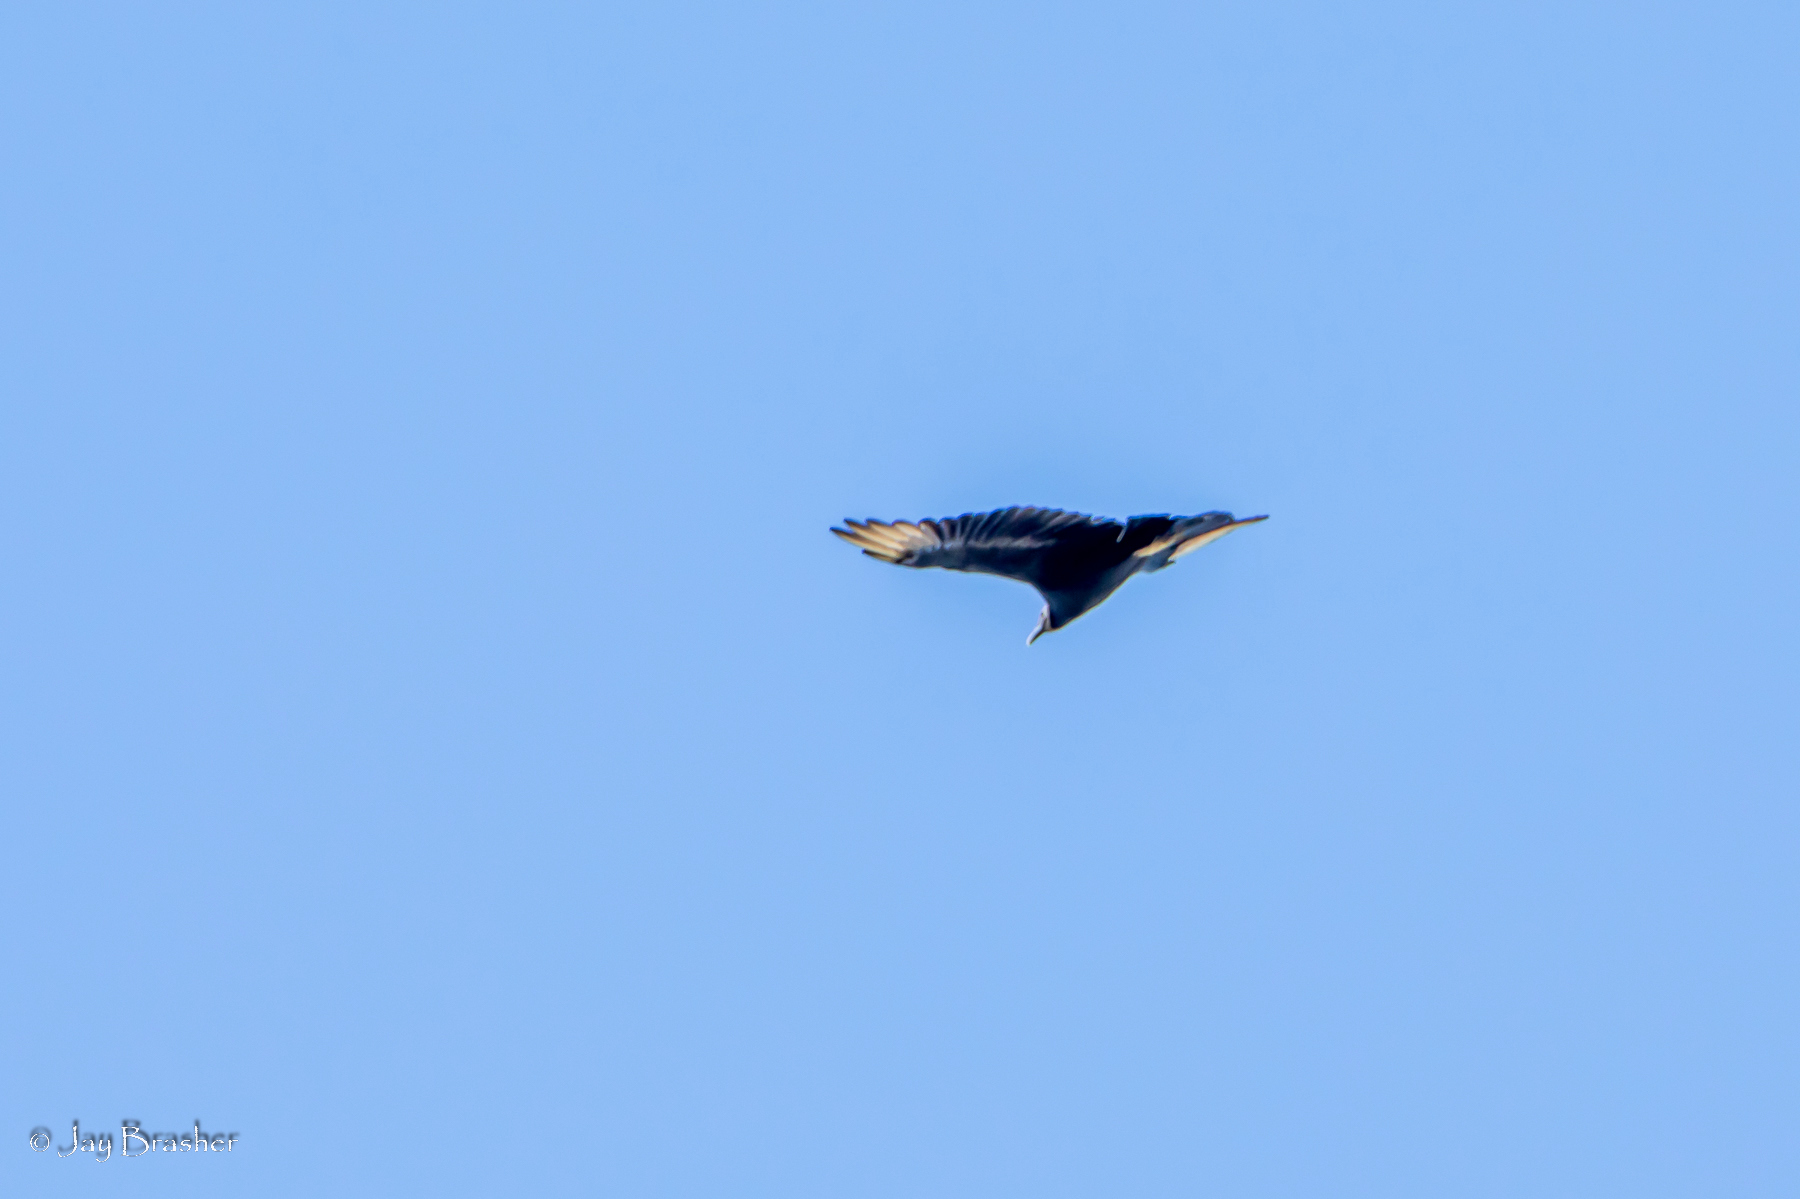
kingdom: Animalia
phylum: Chordata
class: Aves
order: Accipitriformes
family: Cathartidae
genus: Coragyps
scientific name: Coragyps atratus
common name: Black vulture
